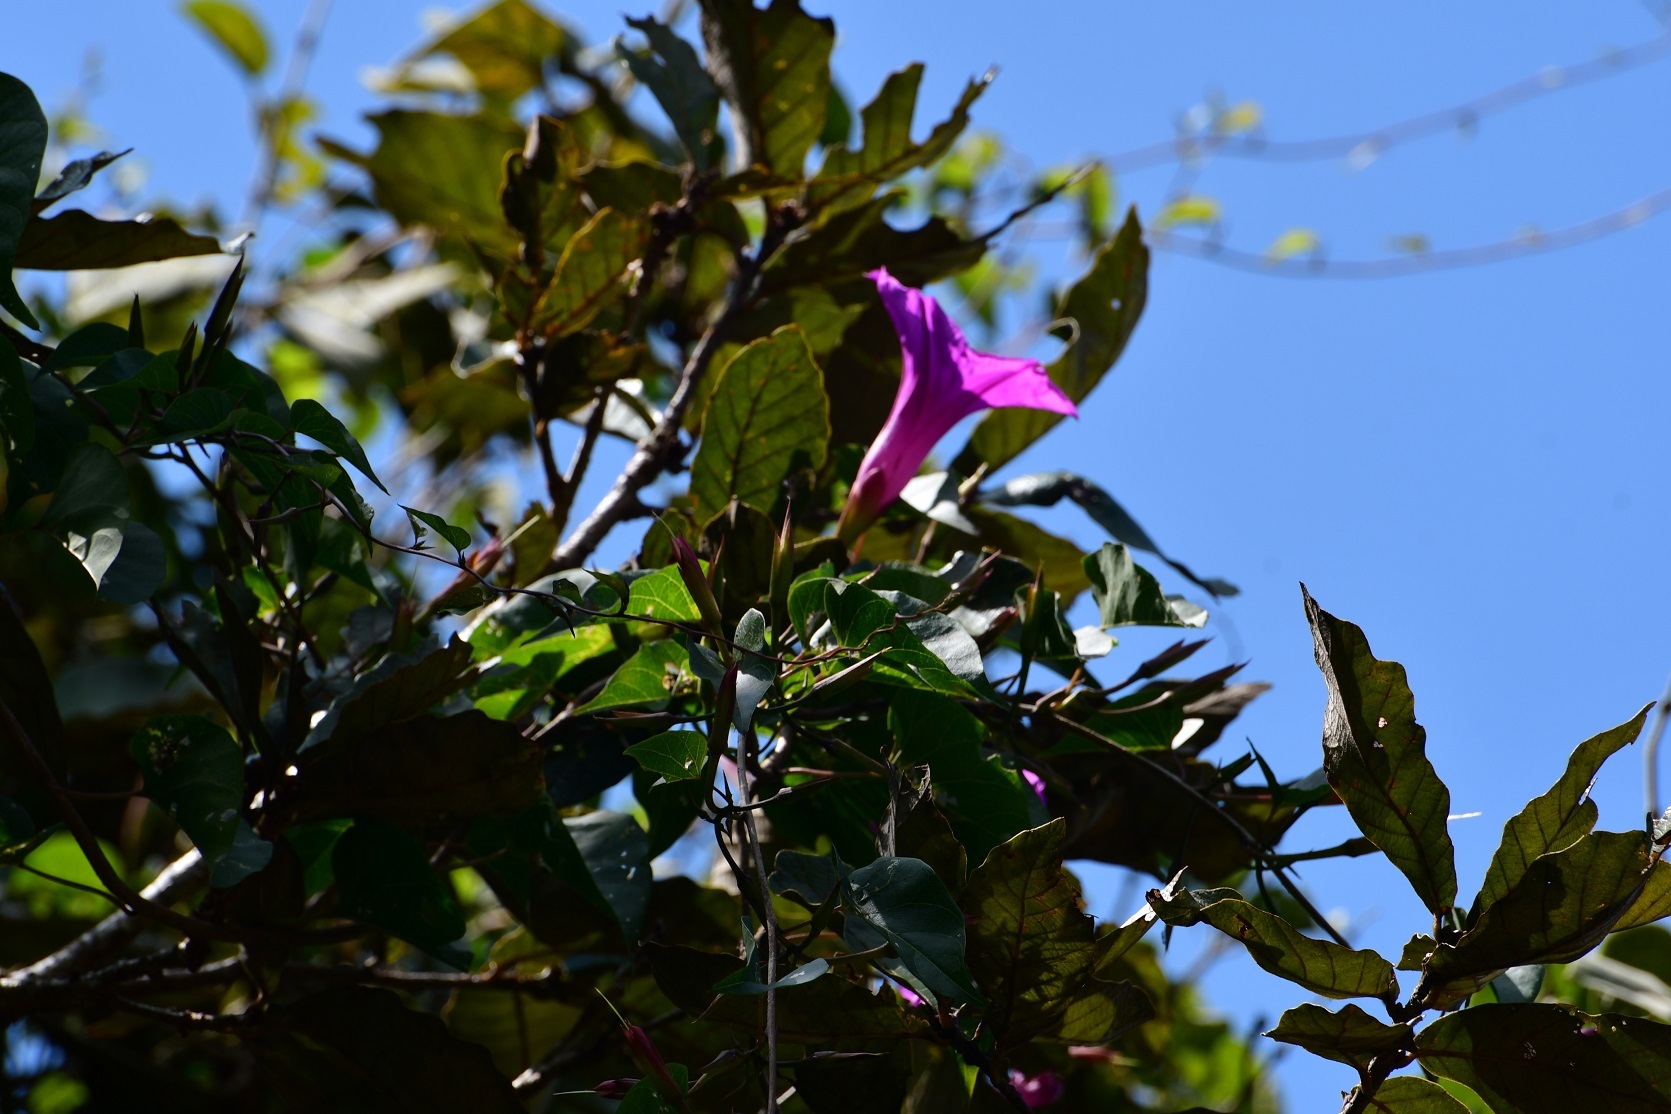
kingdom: Plantae
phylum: Tracheophyta
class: Magnoliopsida
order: Solanales
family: Convolvulaceae
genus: Ipomoea
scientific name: Ipomoea bernoulliana
